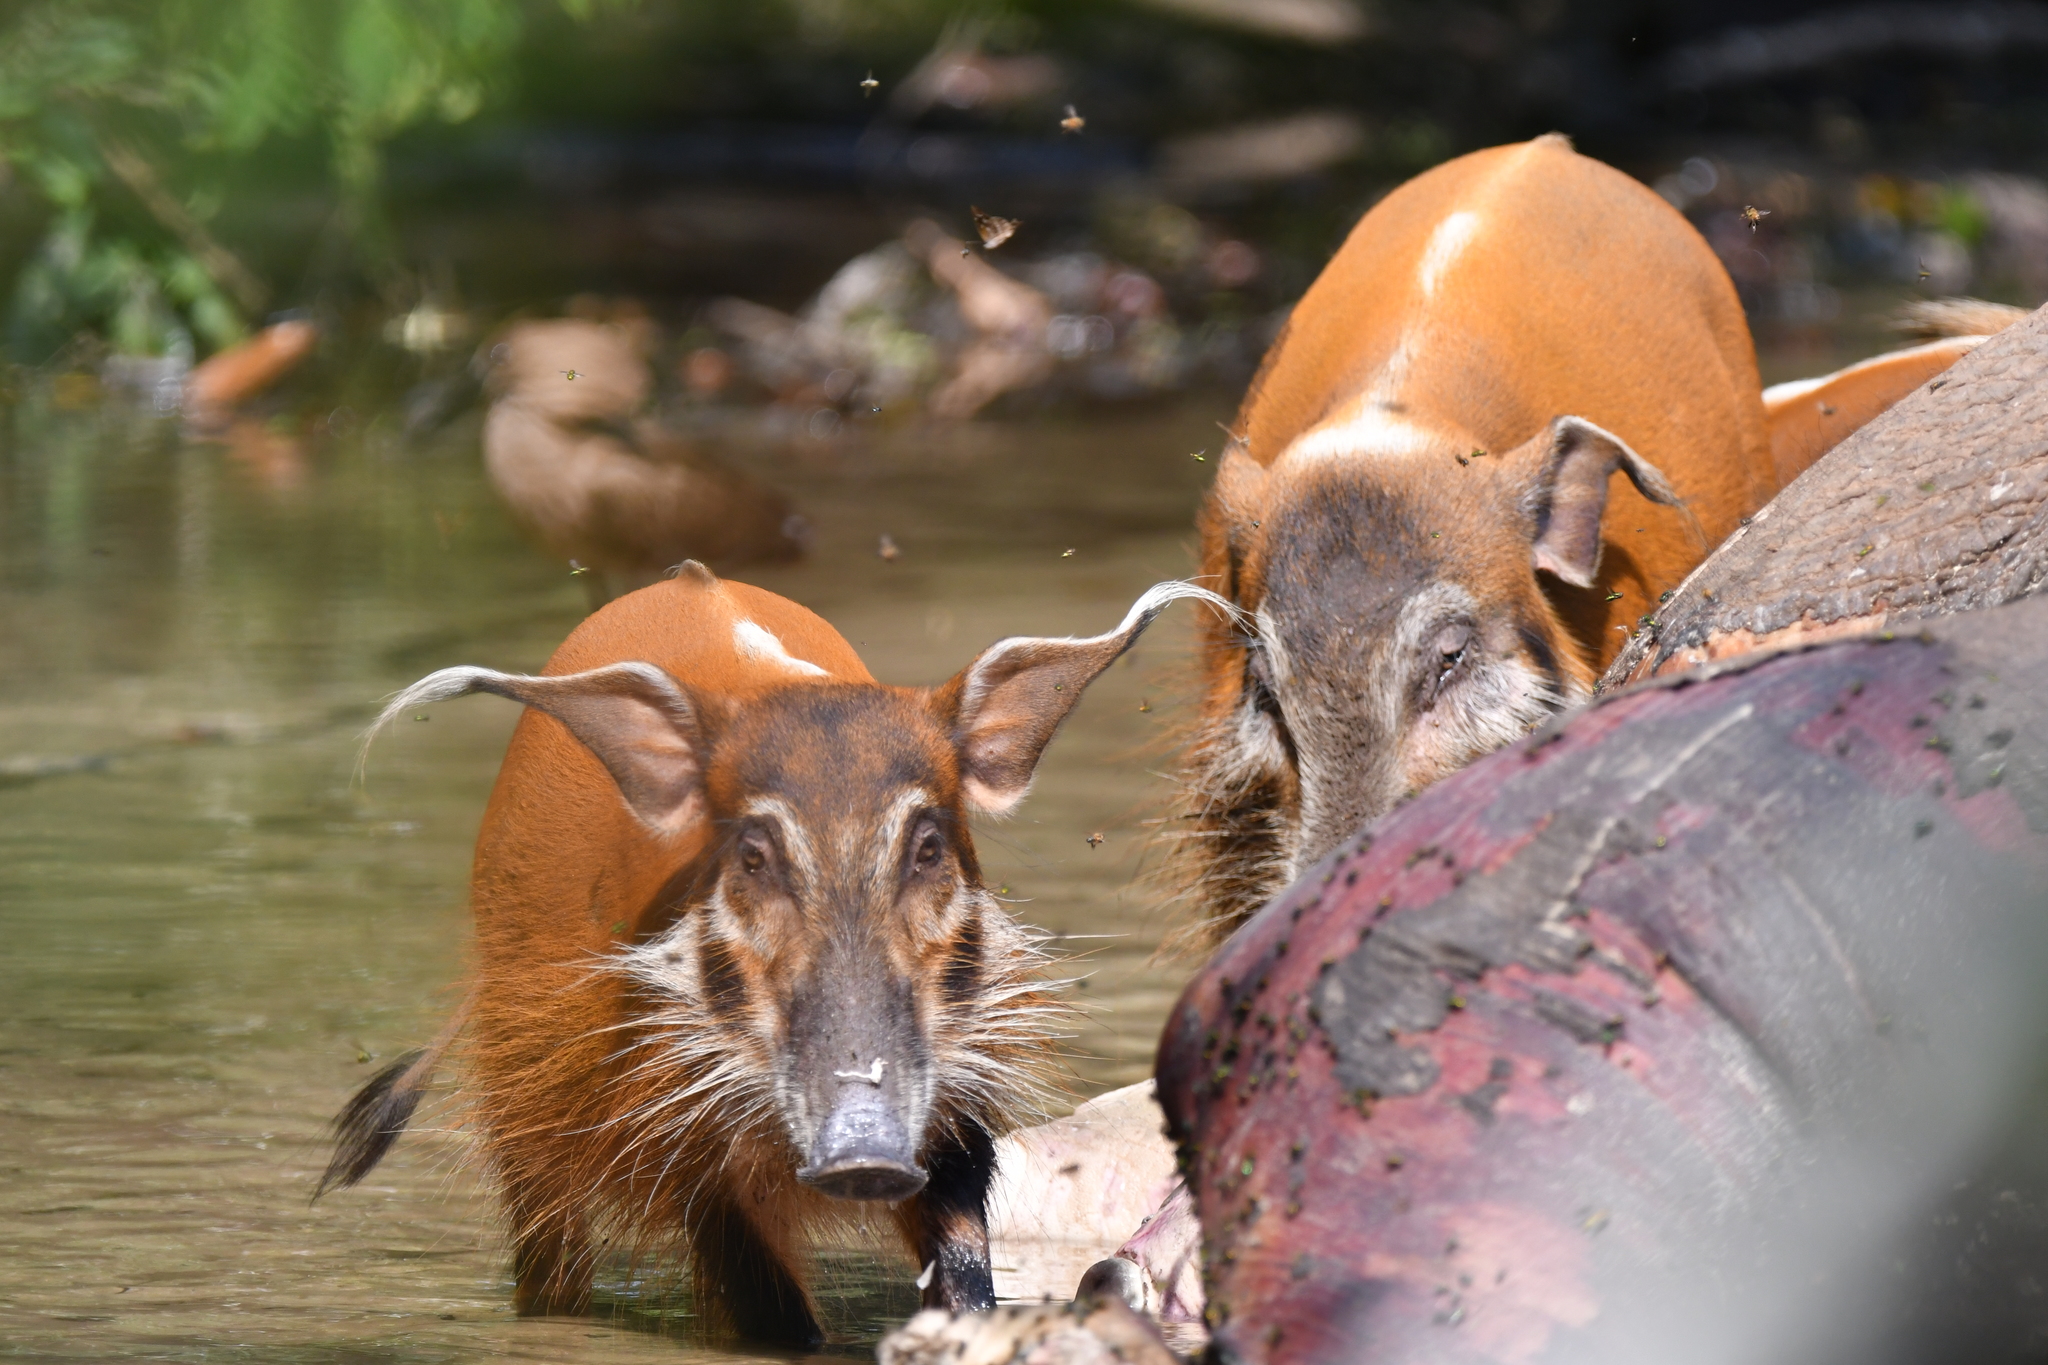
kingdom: Animalia
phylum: Chordata
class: Mammalia
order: Artiodactyla
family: Suidae
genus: Potamochoerus
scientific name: Potamochoerus porcus
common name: Red river hog
